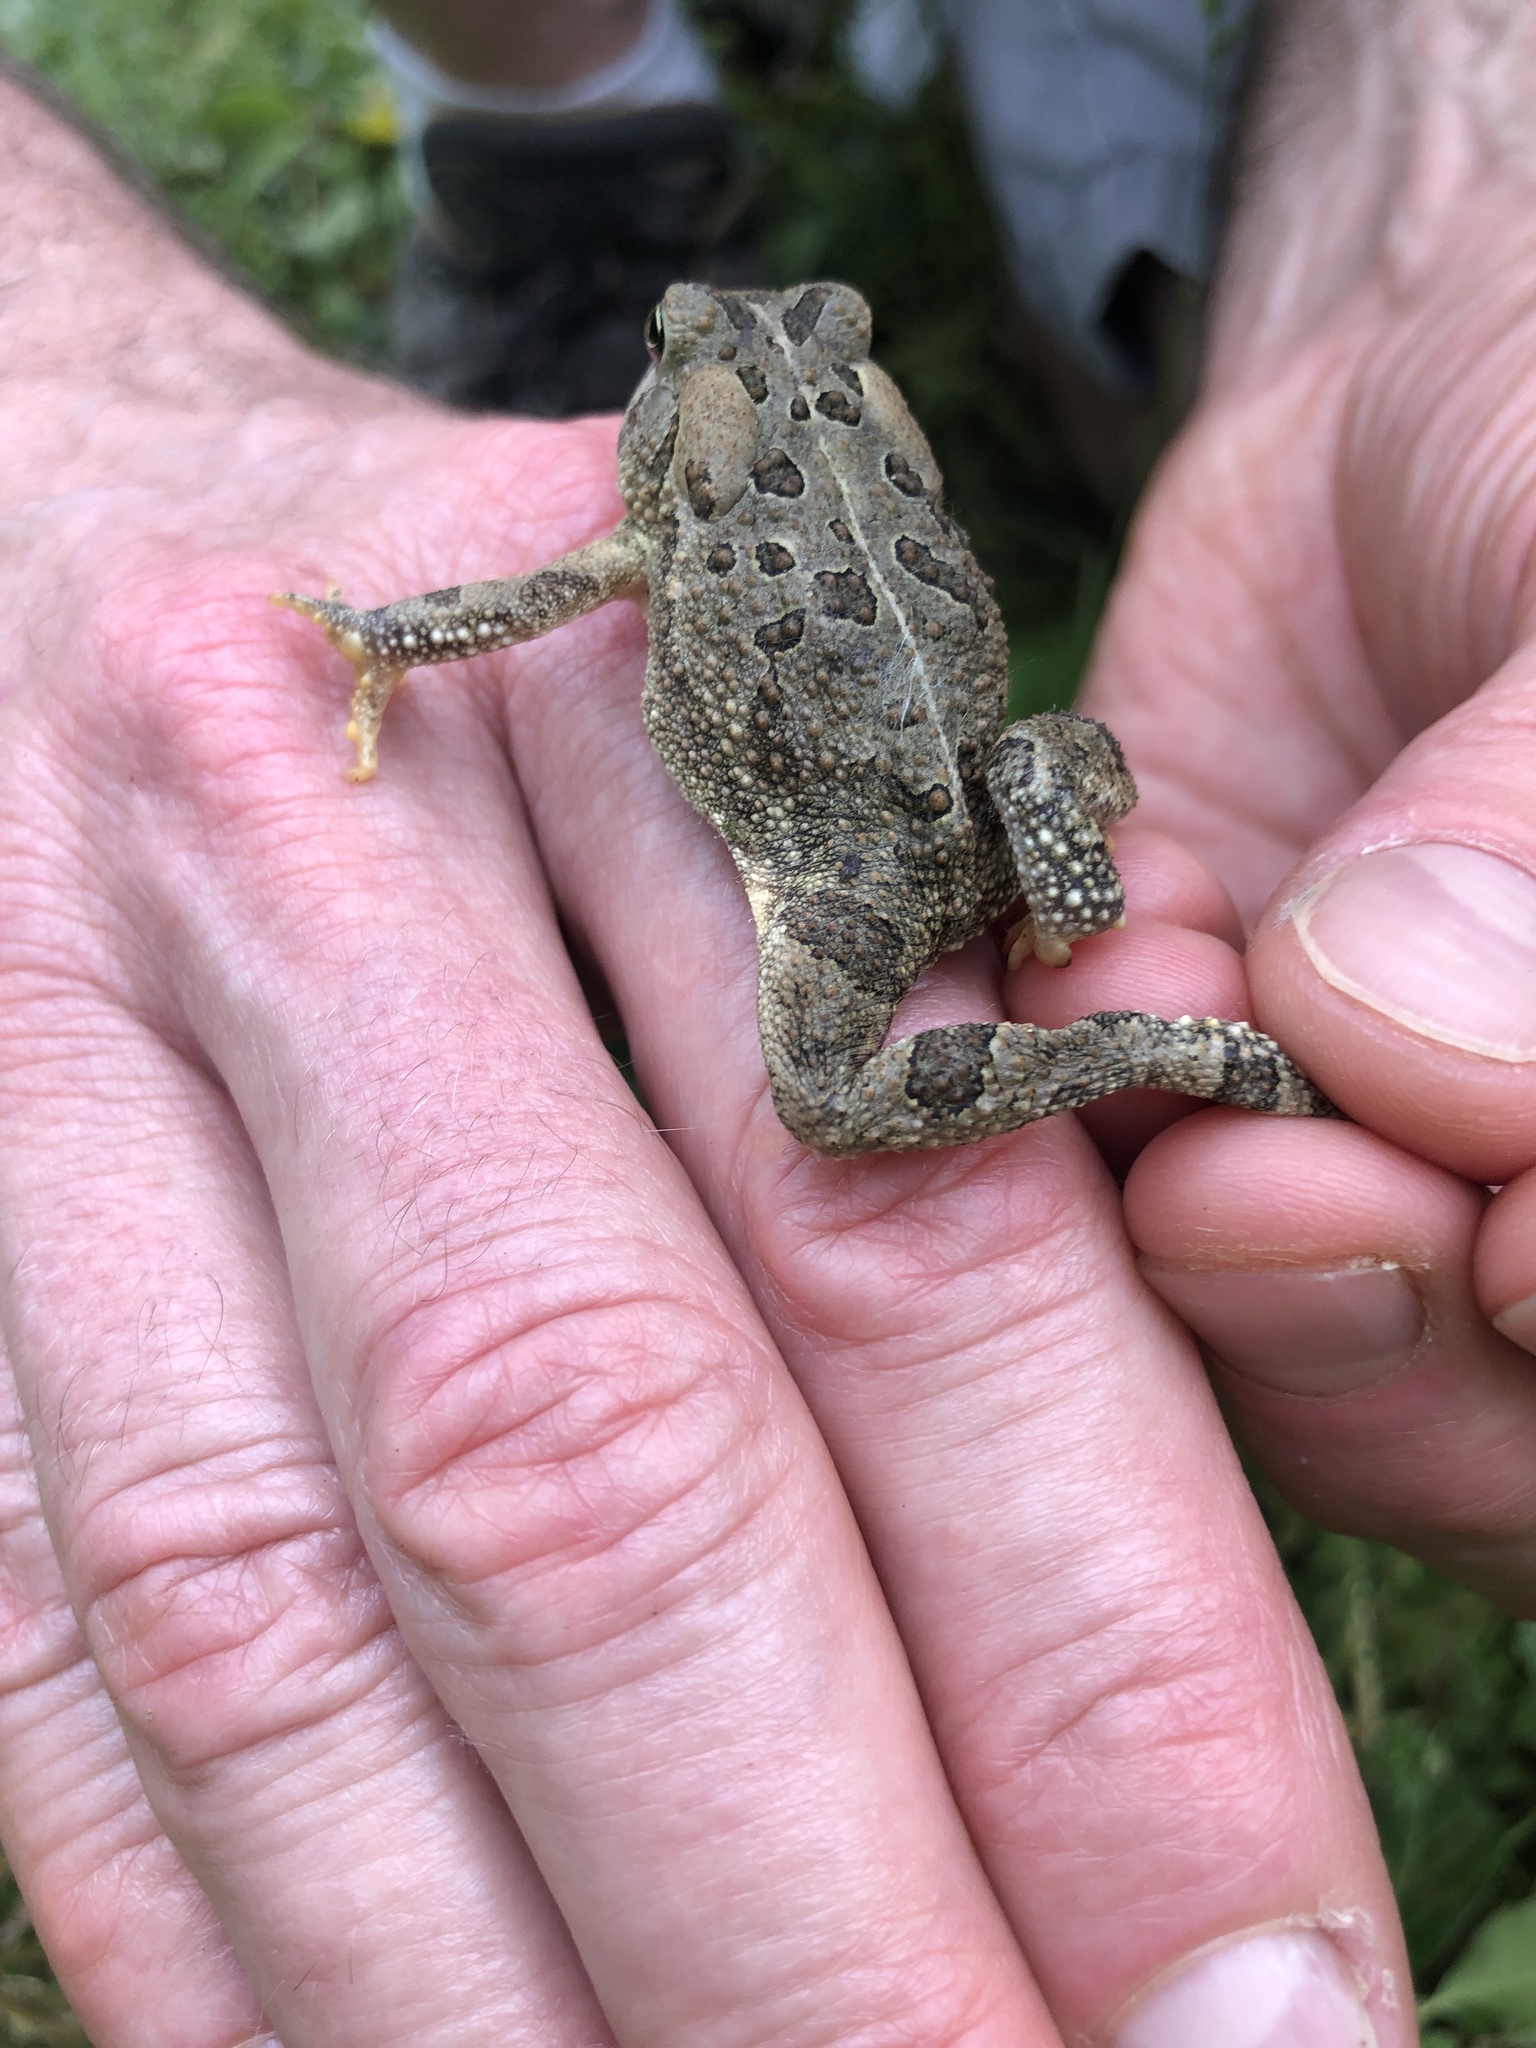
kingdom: Animalia
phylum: Chordata
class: Amphibia
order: Anura
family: Bufonidae
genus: Anaxyrus
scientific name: Anaxyrus fowleri
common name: Fowler's toad
